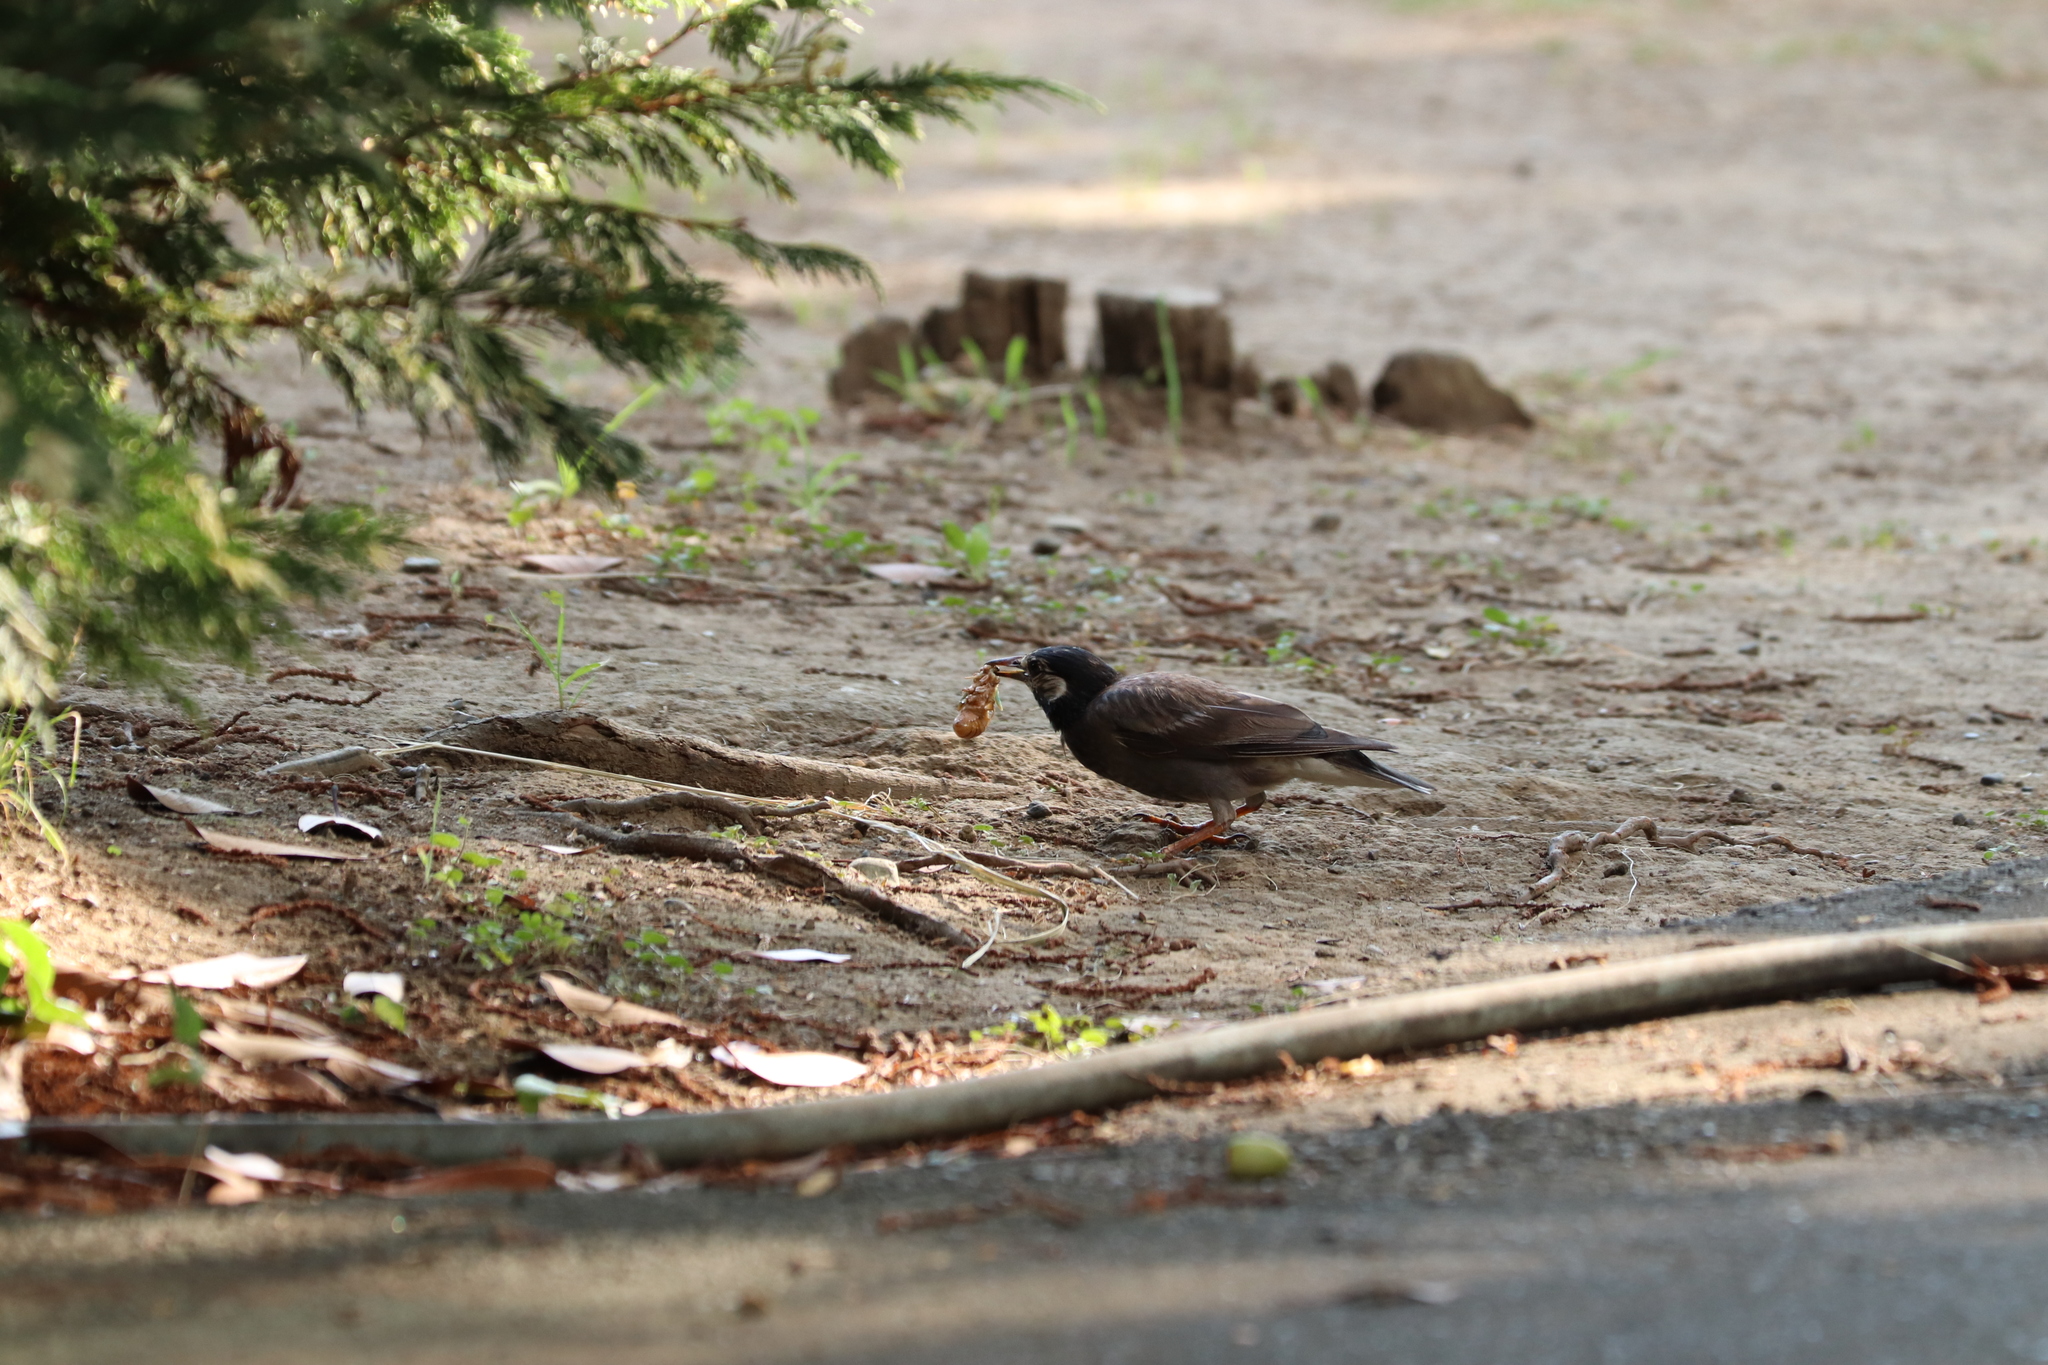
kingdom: Animalia
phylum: Chordata
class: Aves
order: Passeriformes
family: Sturnidae
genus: Spodiopsar
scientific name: Spodiopsar cineraceus
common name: White-cheeked starling
